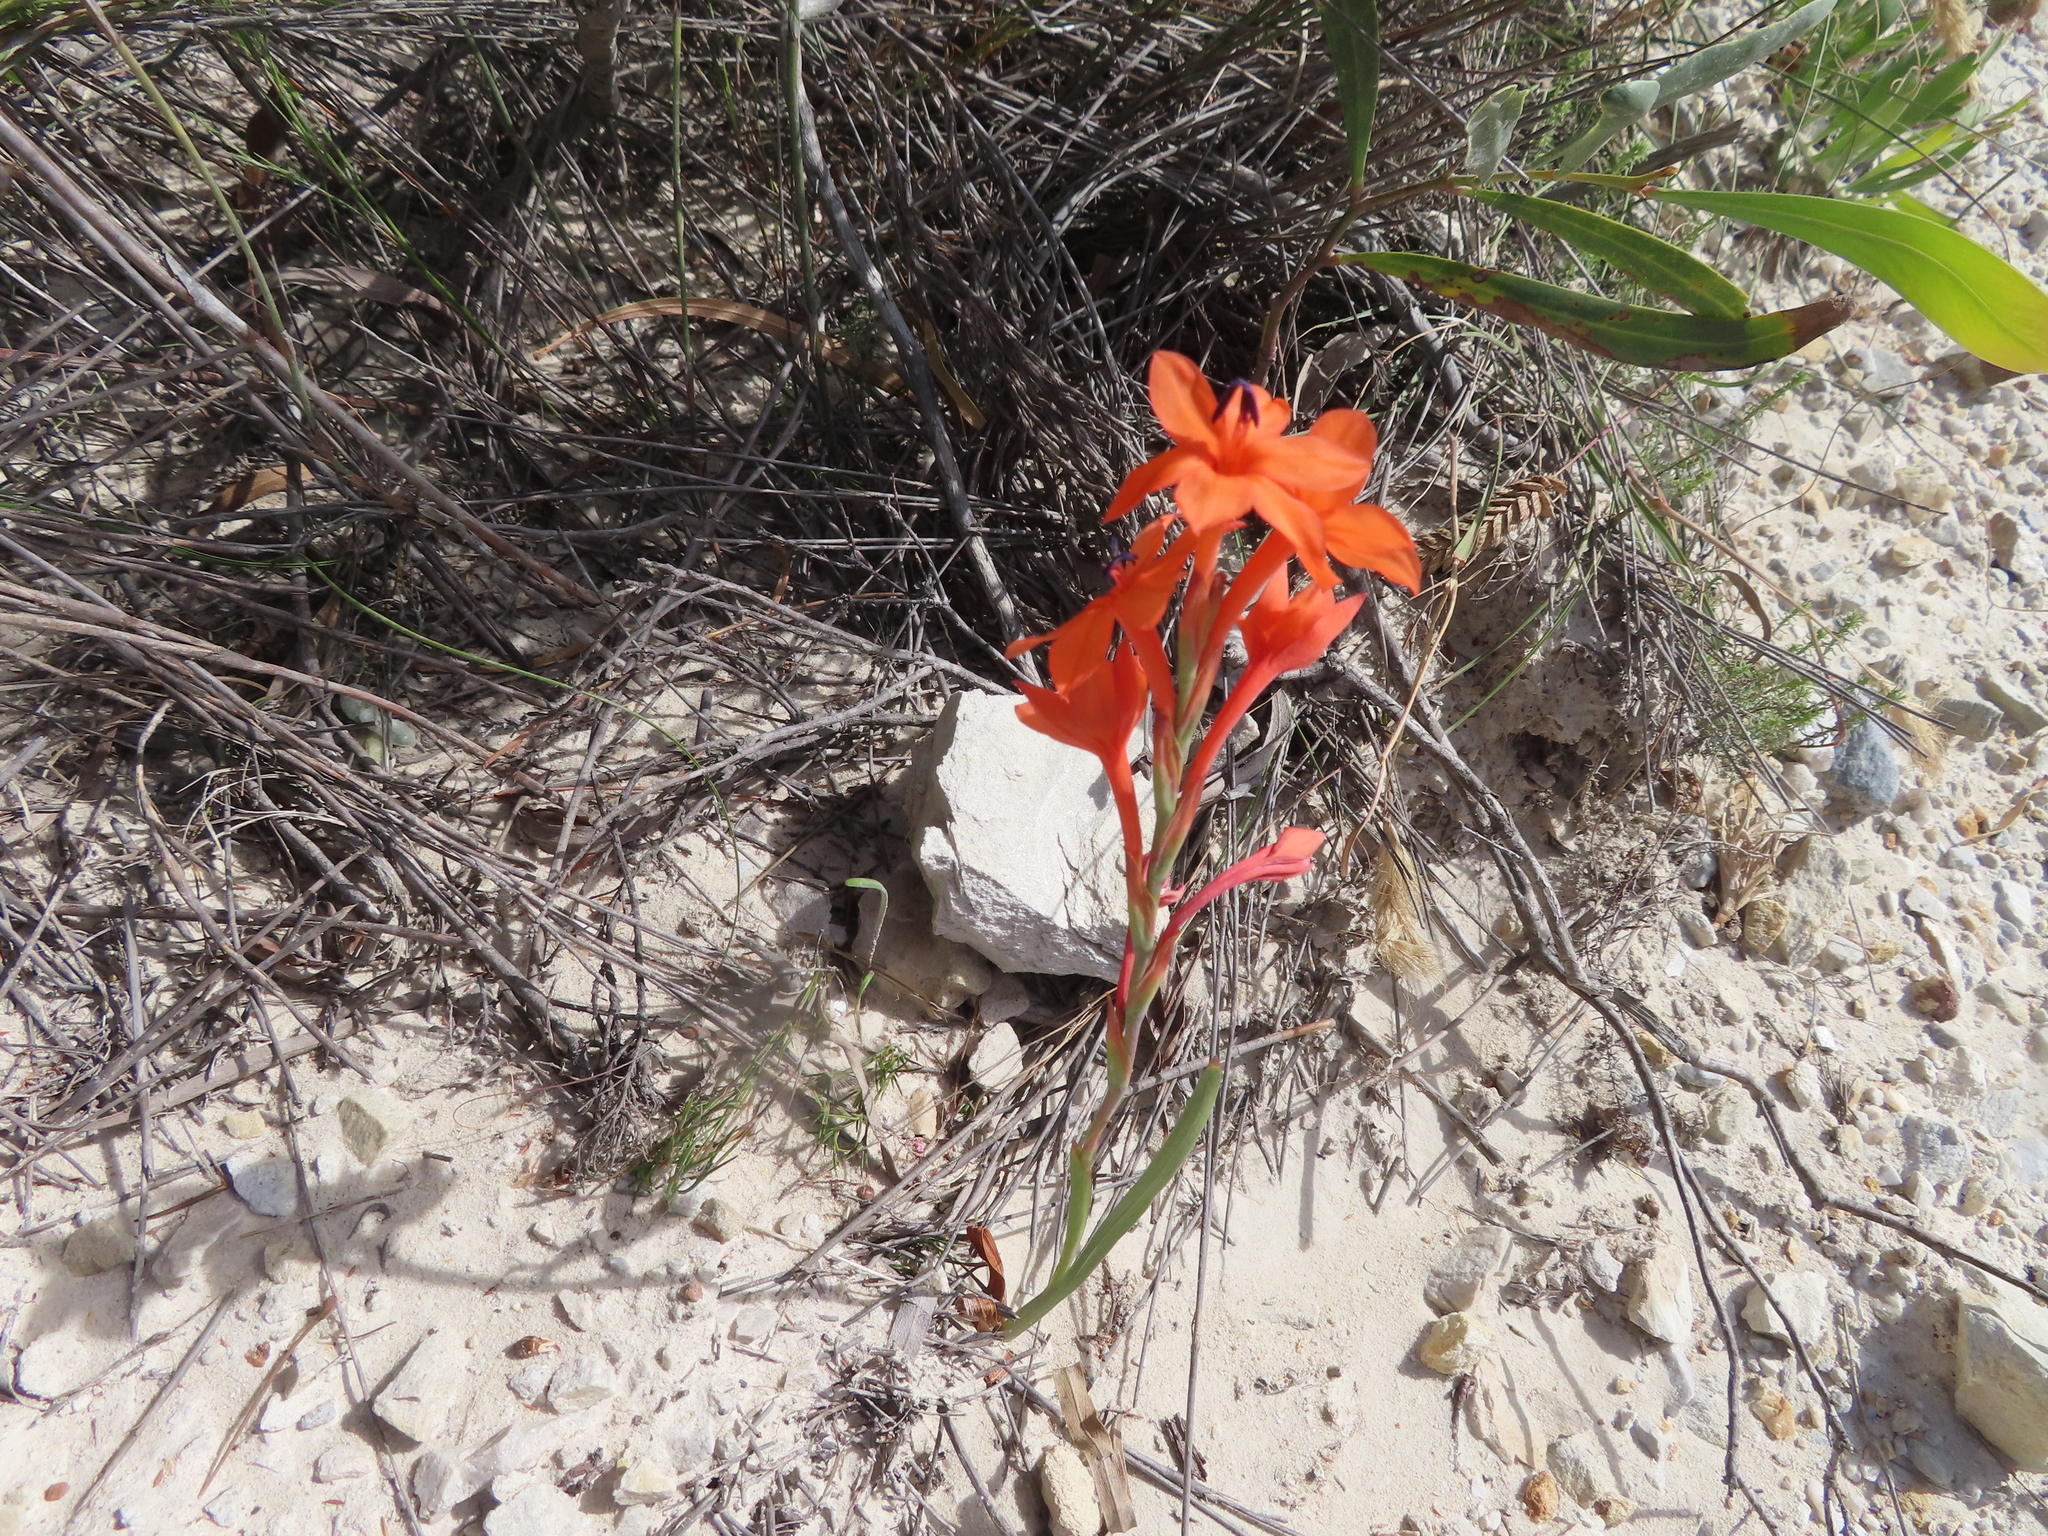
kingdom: Plantae
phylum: Tracheophyta
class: Liliopsida
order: Asparagales
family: Iridaceae
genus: Watsonia
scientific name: Watsonia stenosiphon
